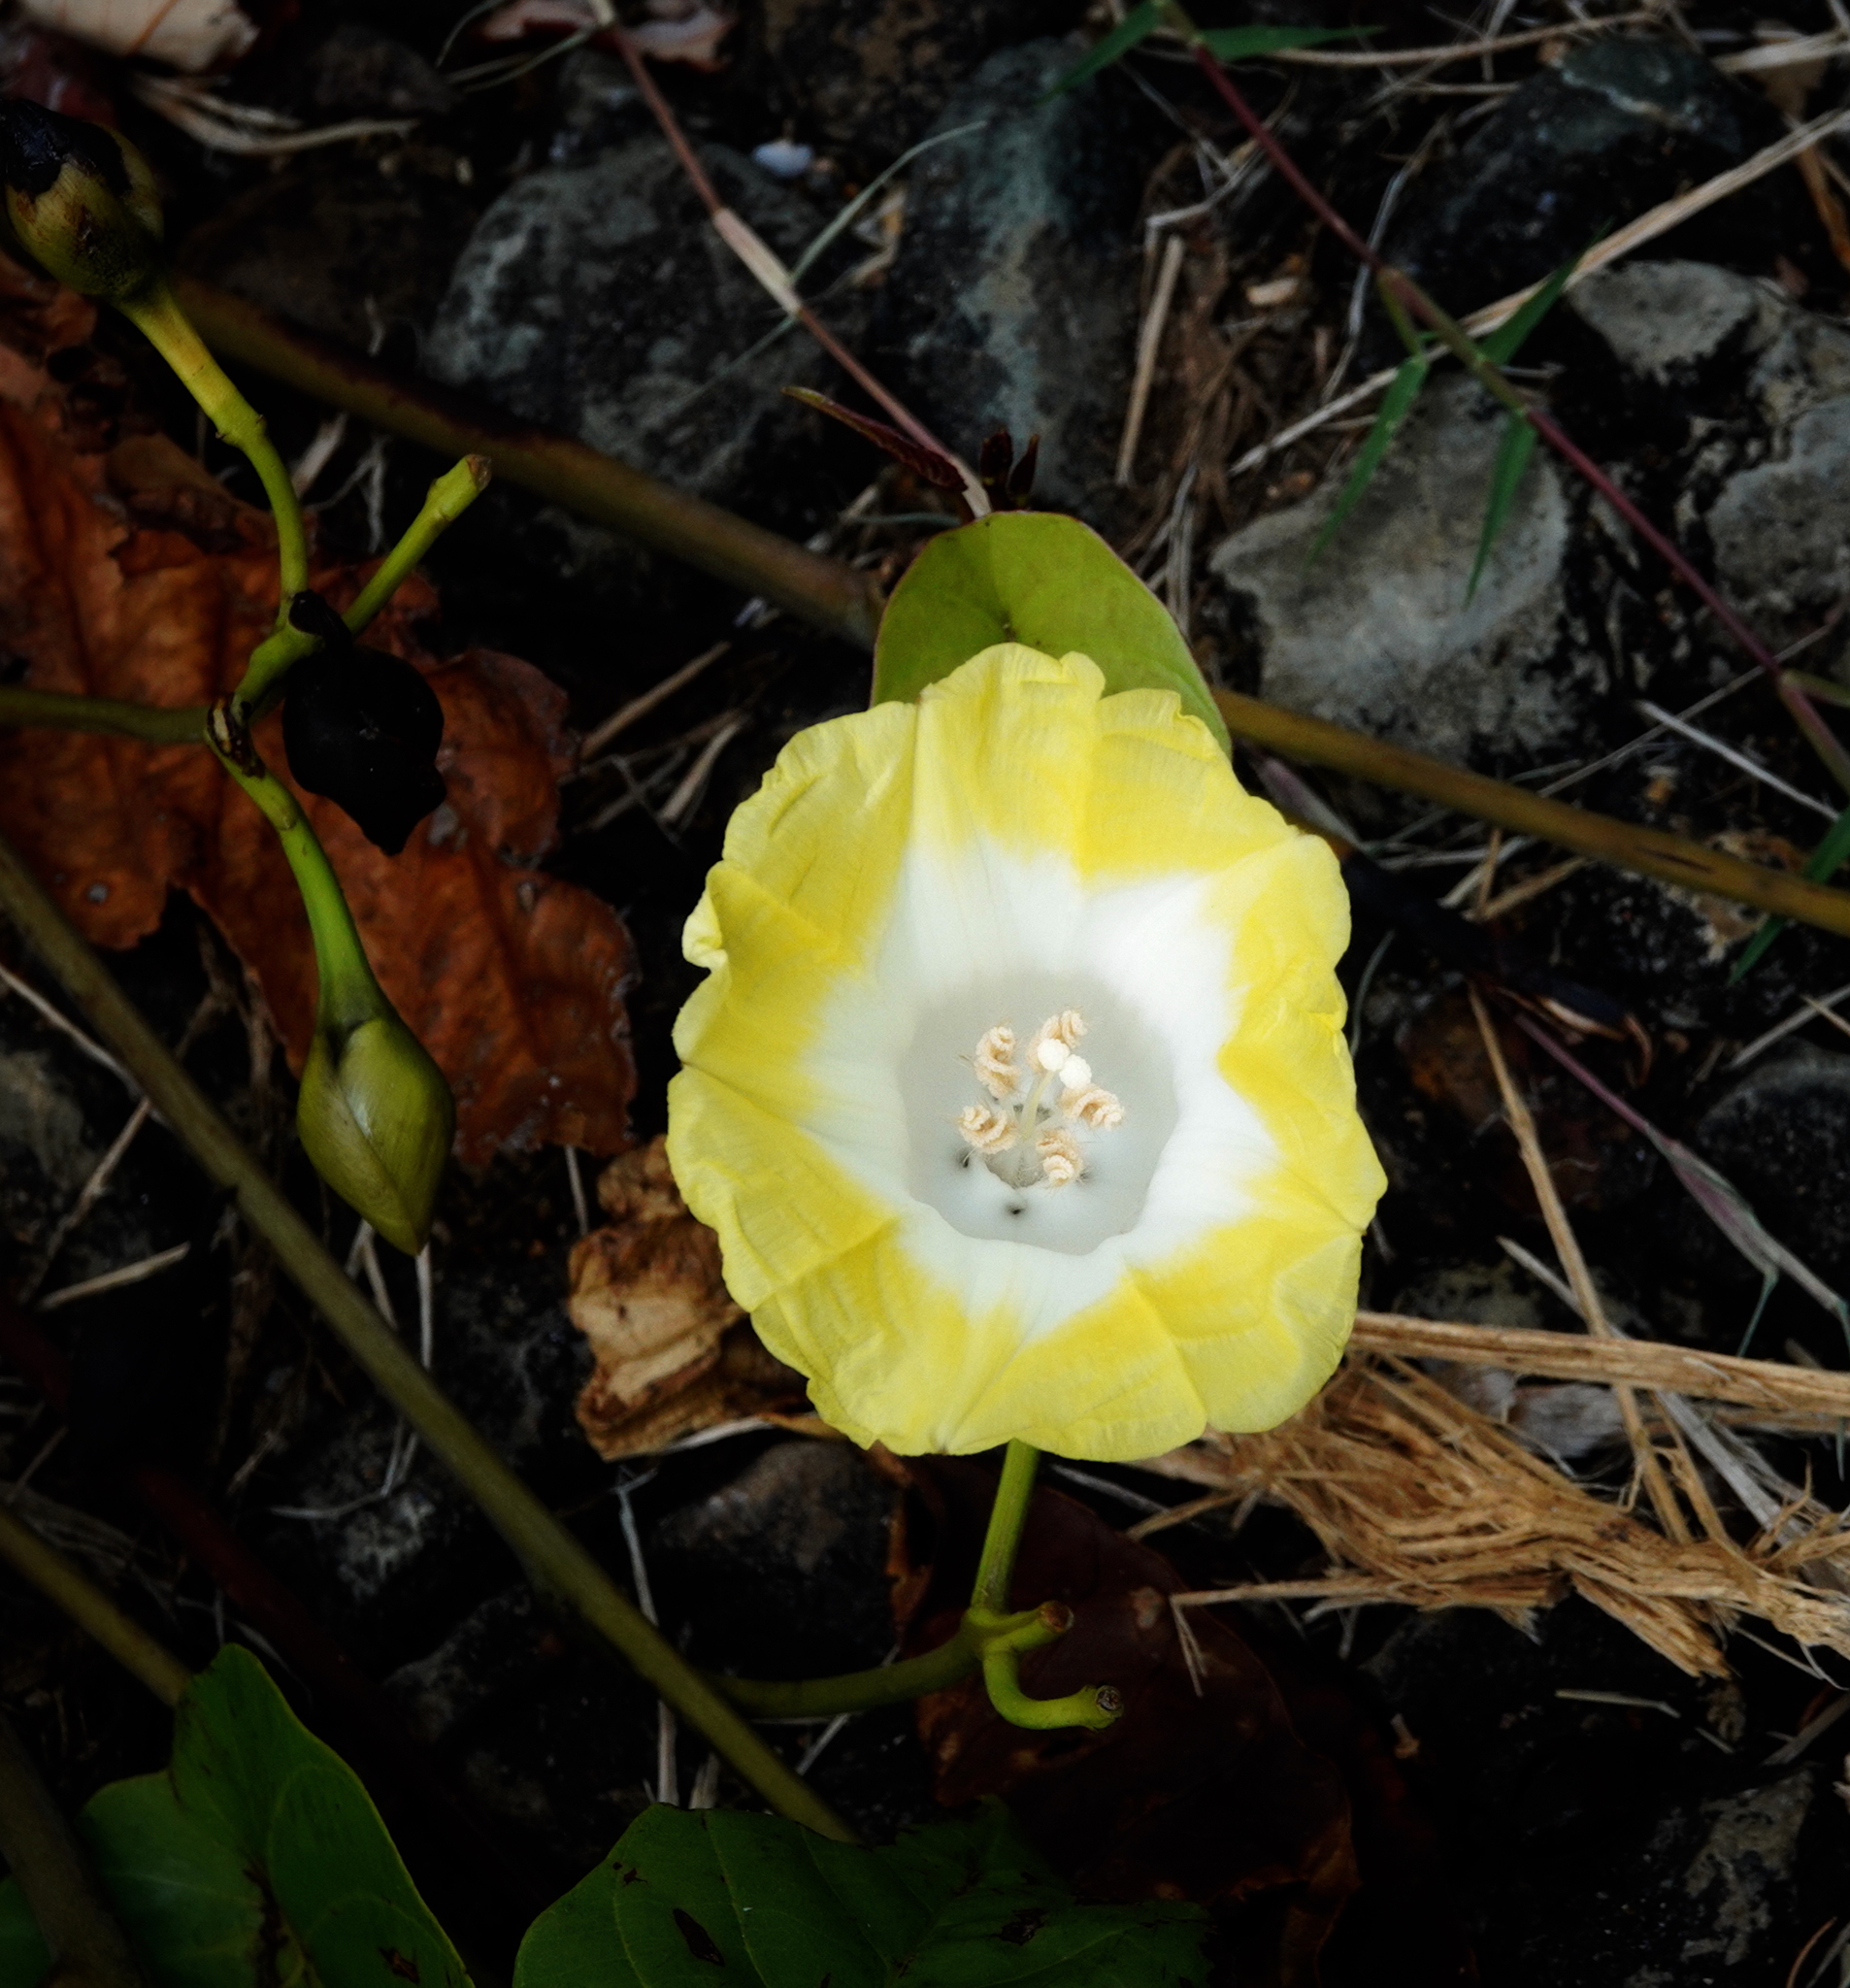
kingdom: Plantae
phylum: Tracheophyta
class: Magnoliopsida
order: Solanales
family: Convolvulaceae
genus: Decalobanthus
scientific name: Decalobanthus peltatus
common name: Merremia
